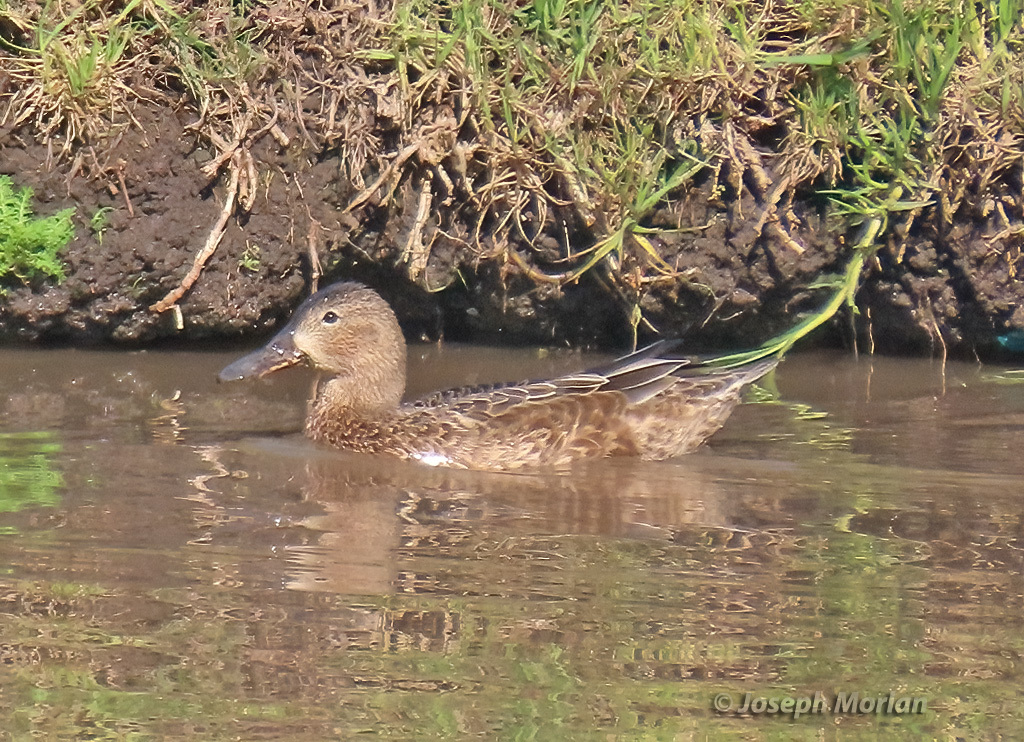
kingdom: Animalia
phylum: Chordata
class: Aves
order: Anseriformes
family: Anatidae
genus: Spatula
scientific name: Spatula cyanoptera
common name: Cinnamon teal
